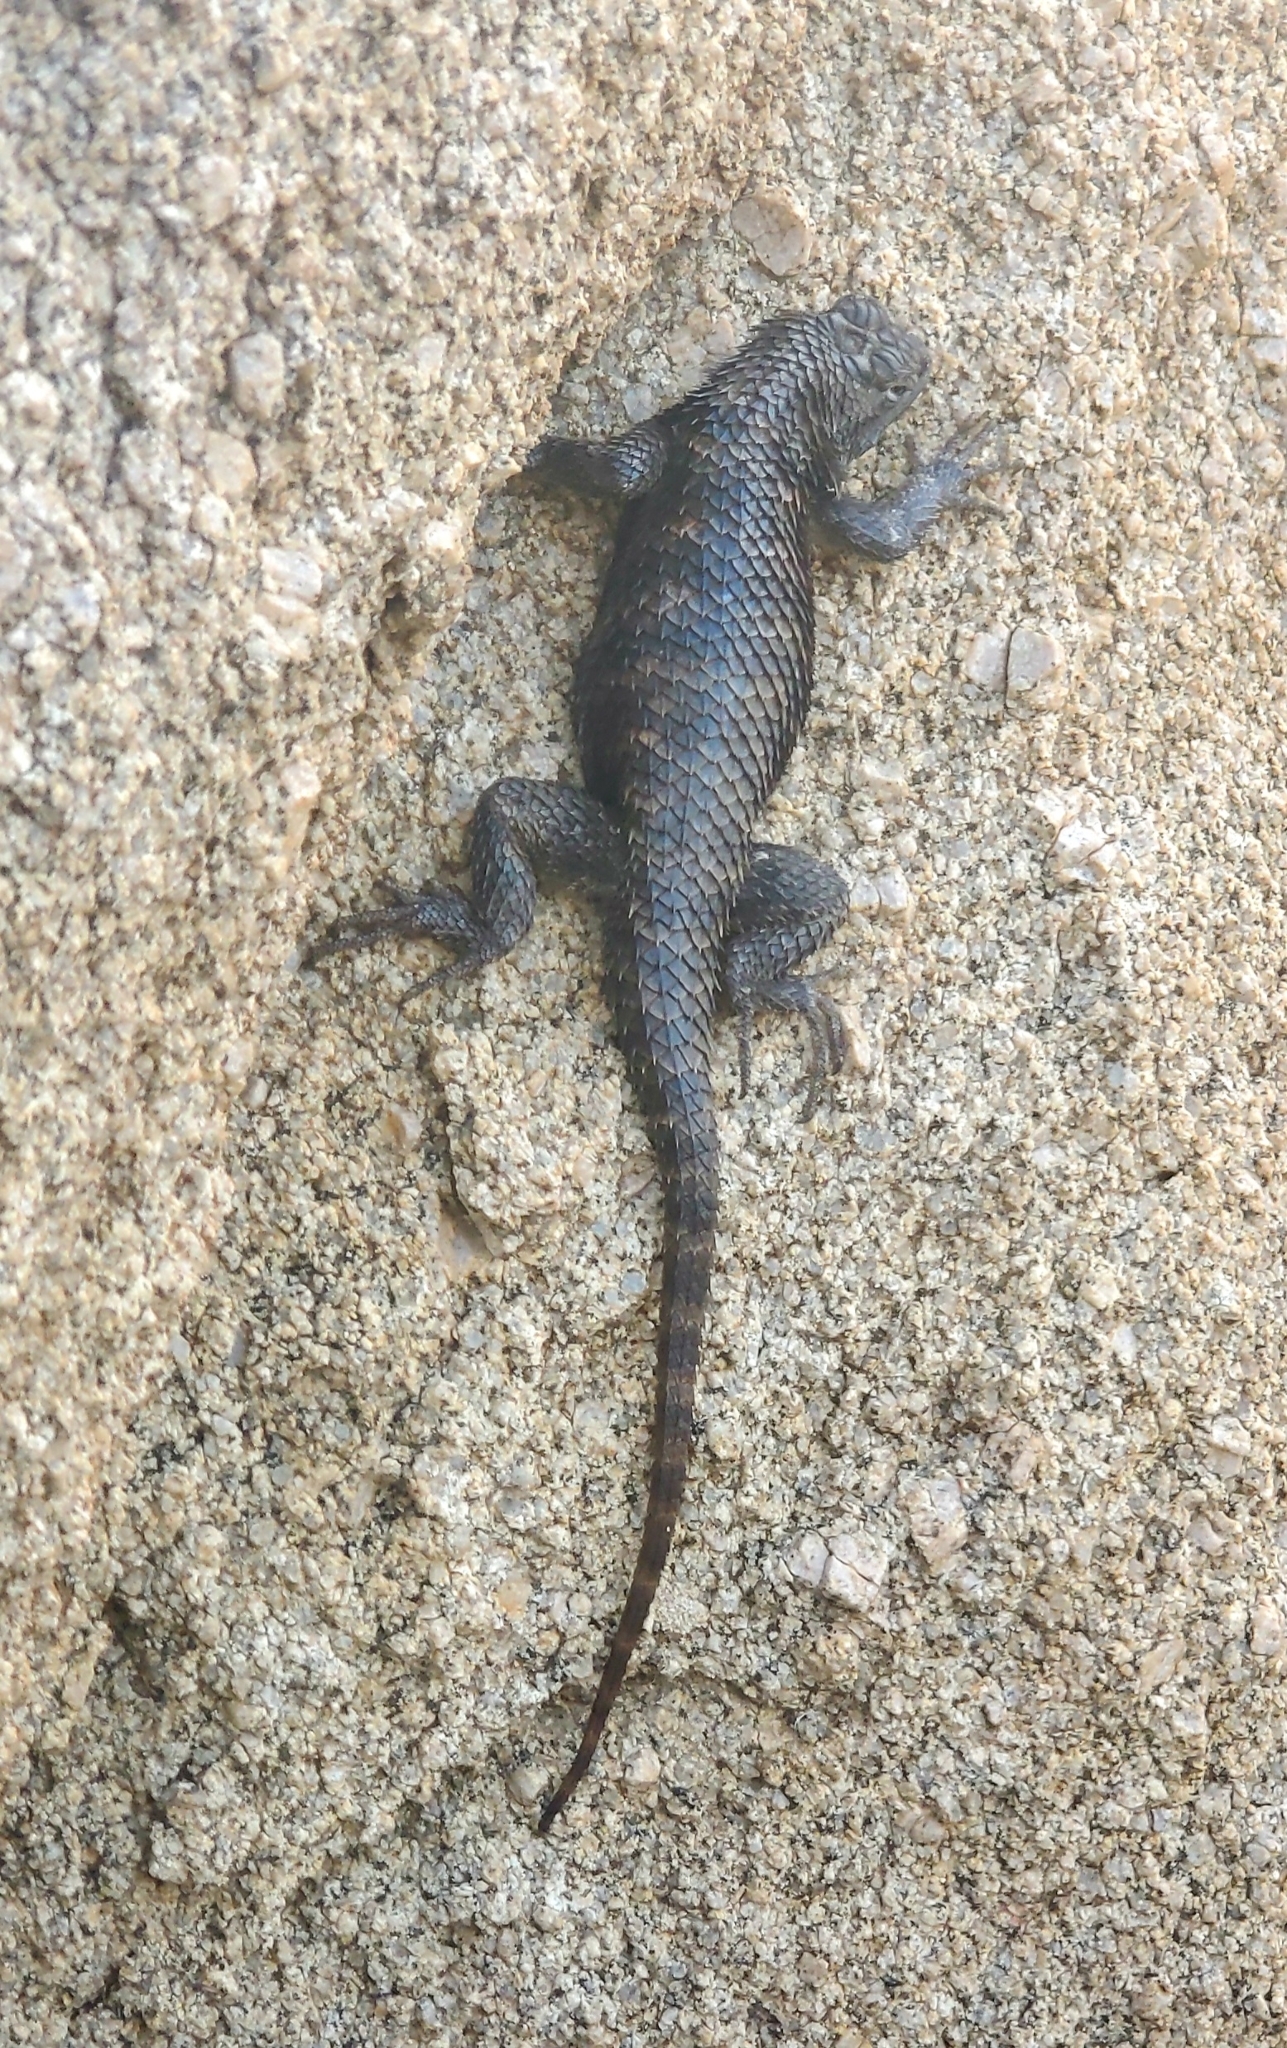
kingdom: Animalia
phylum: Chordata
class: Squamata
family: Phrynosomatidae
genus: Sceloporus
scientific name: Sceloporus magister
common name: Desert spiny lizard
